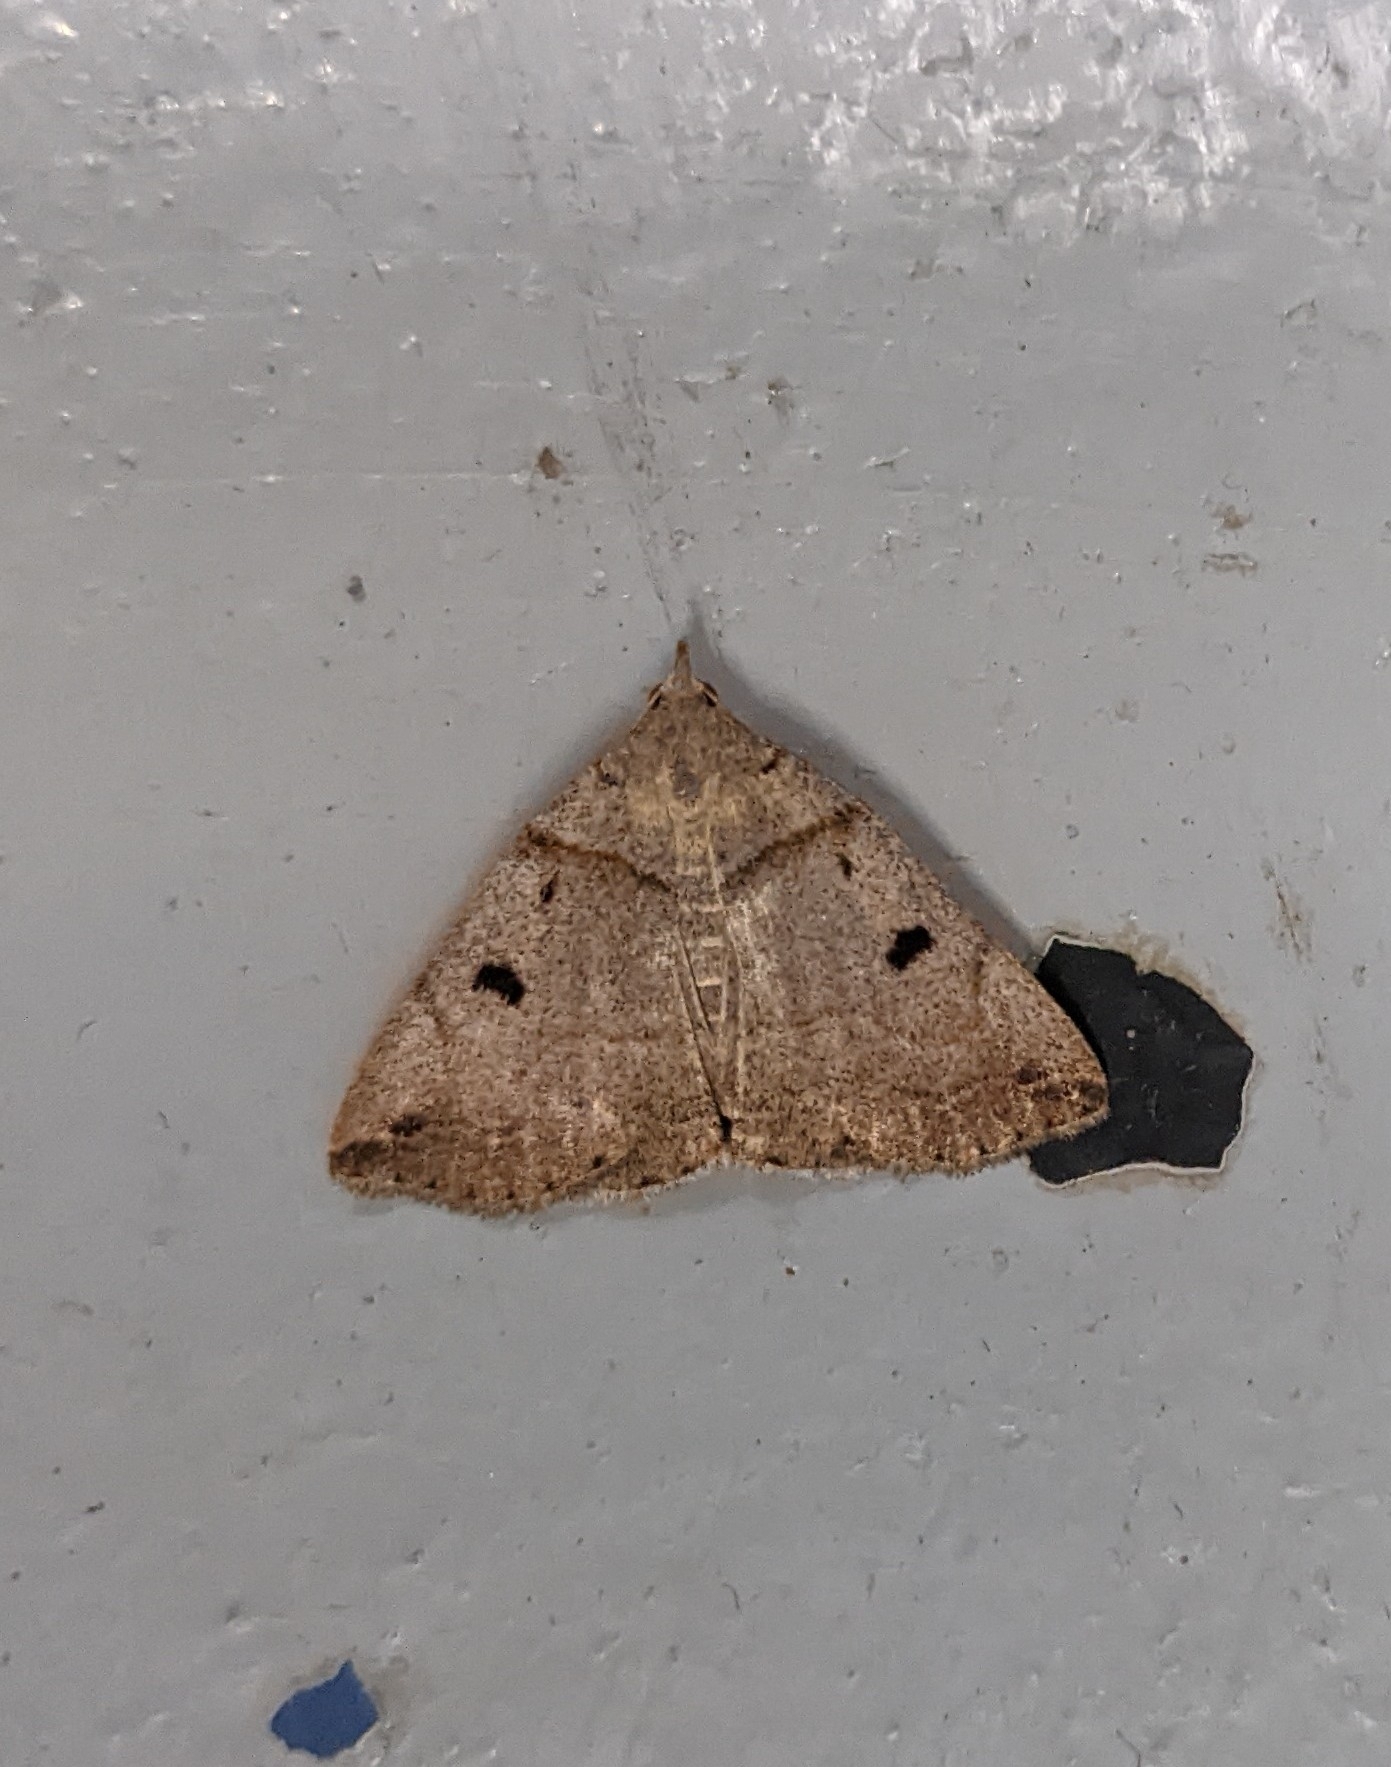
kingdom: Animalia
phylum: Arthropoda
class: Insecta
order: Lepidoptera
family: Erebidae
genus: Zanclognatha
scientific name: Zanclognatha laevigata
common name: Variable fan-foot
